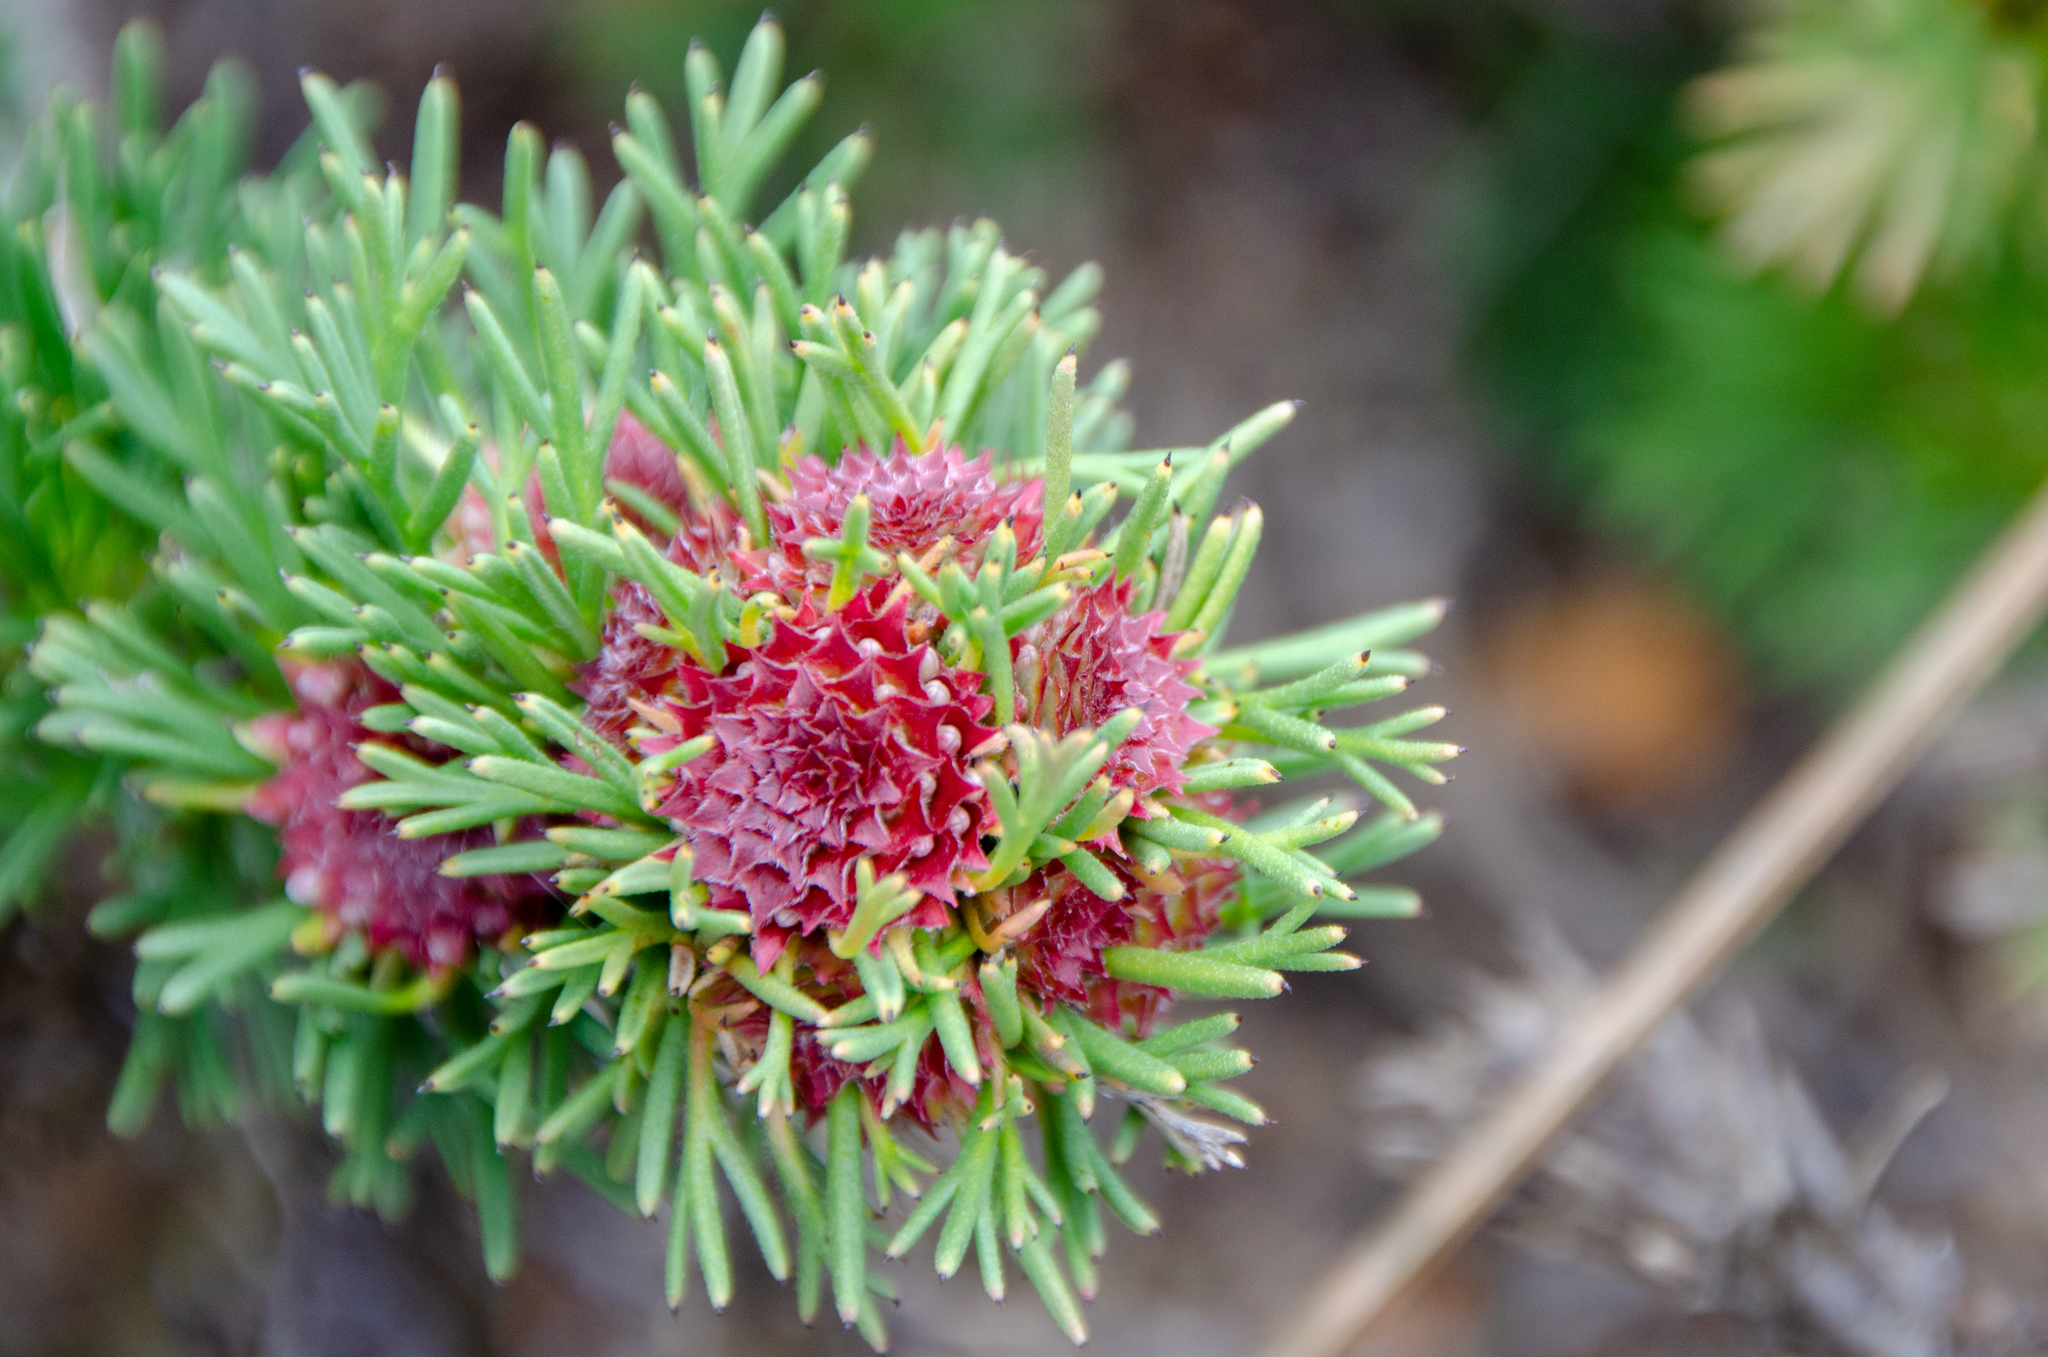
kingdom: Plantae
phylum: Tracheophyta
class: Magnoliopsida
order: Proteales
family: Proteaceae
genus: Isopogon
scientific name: Isopogon asper
